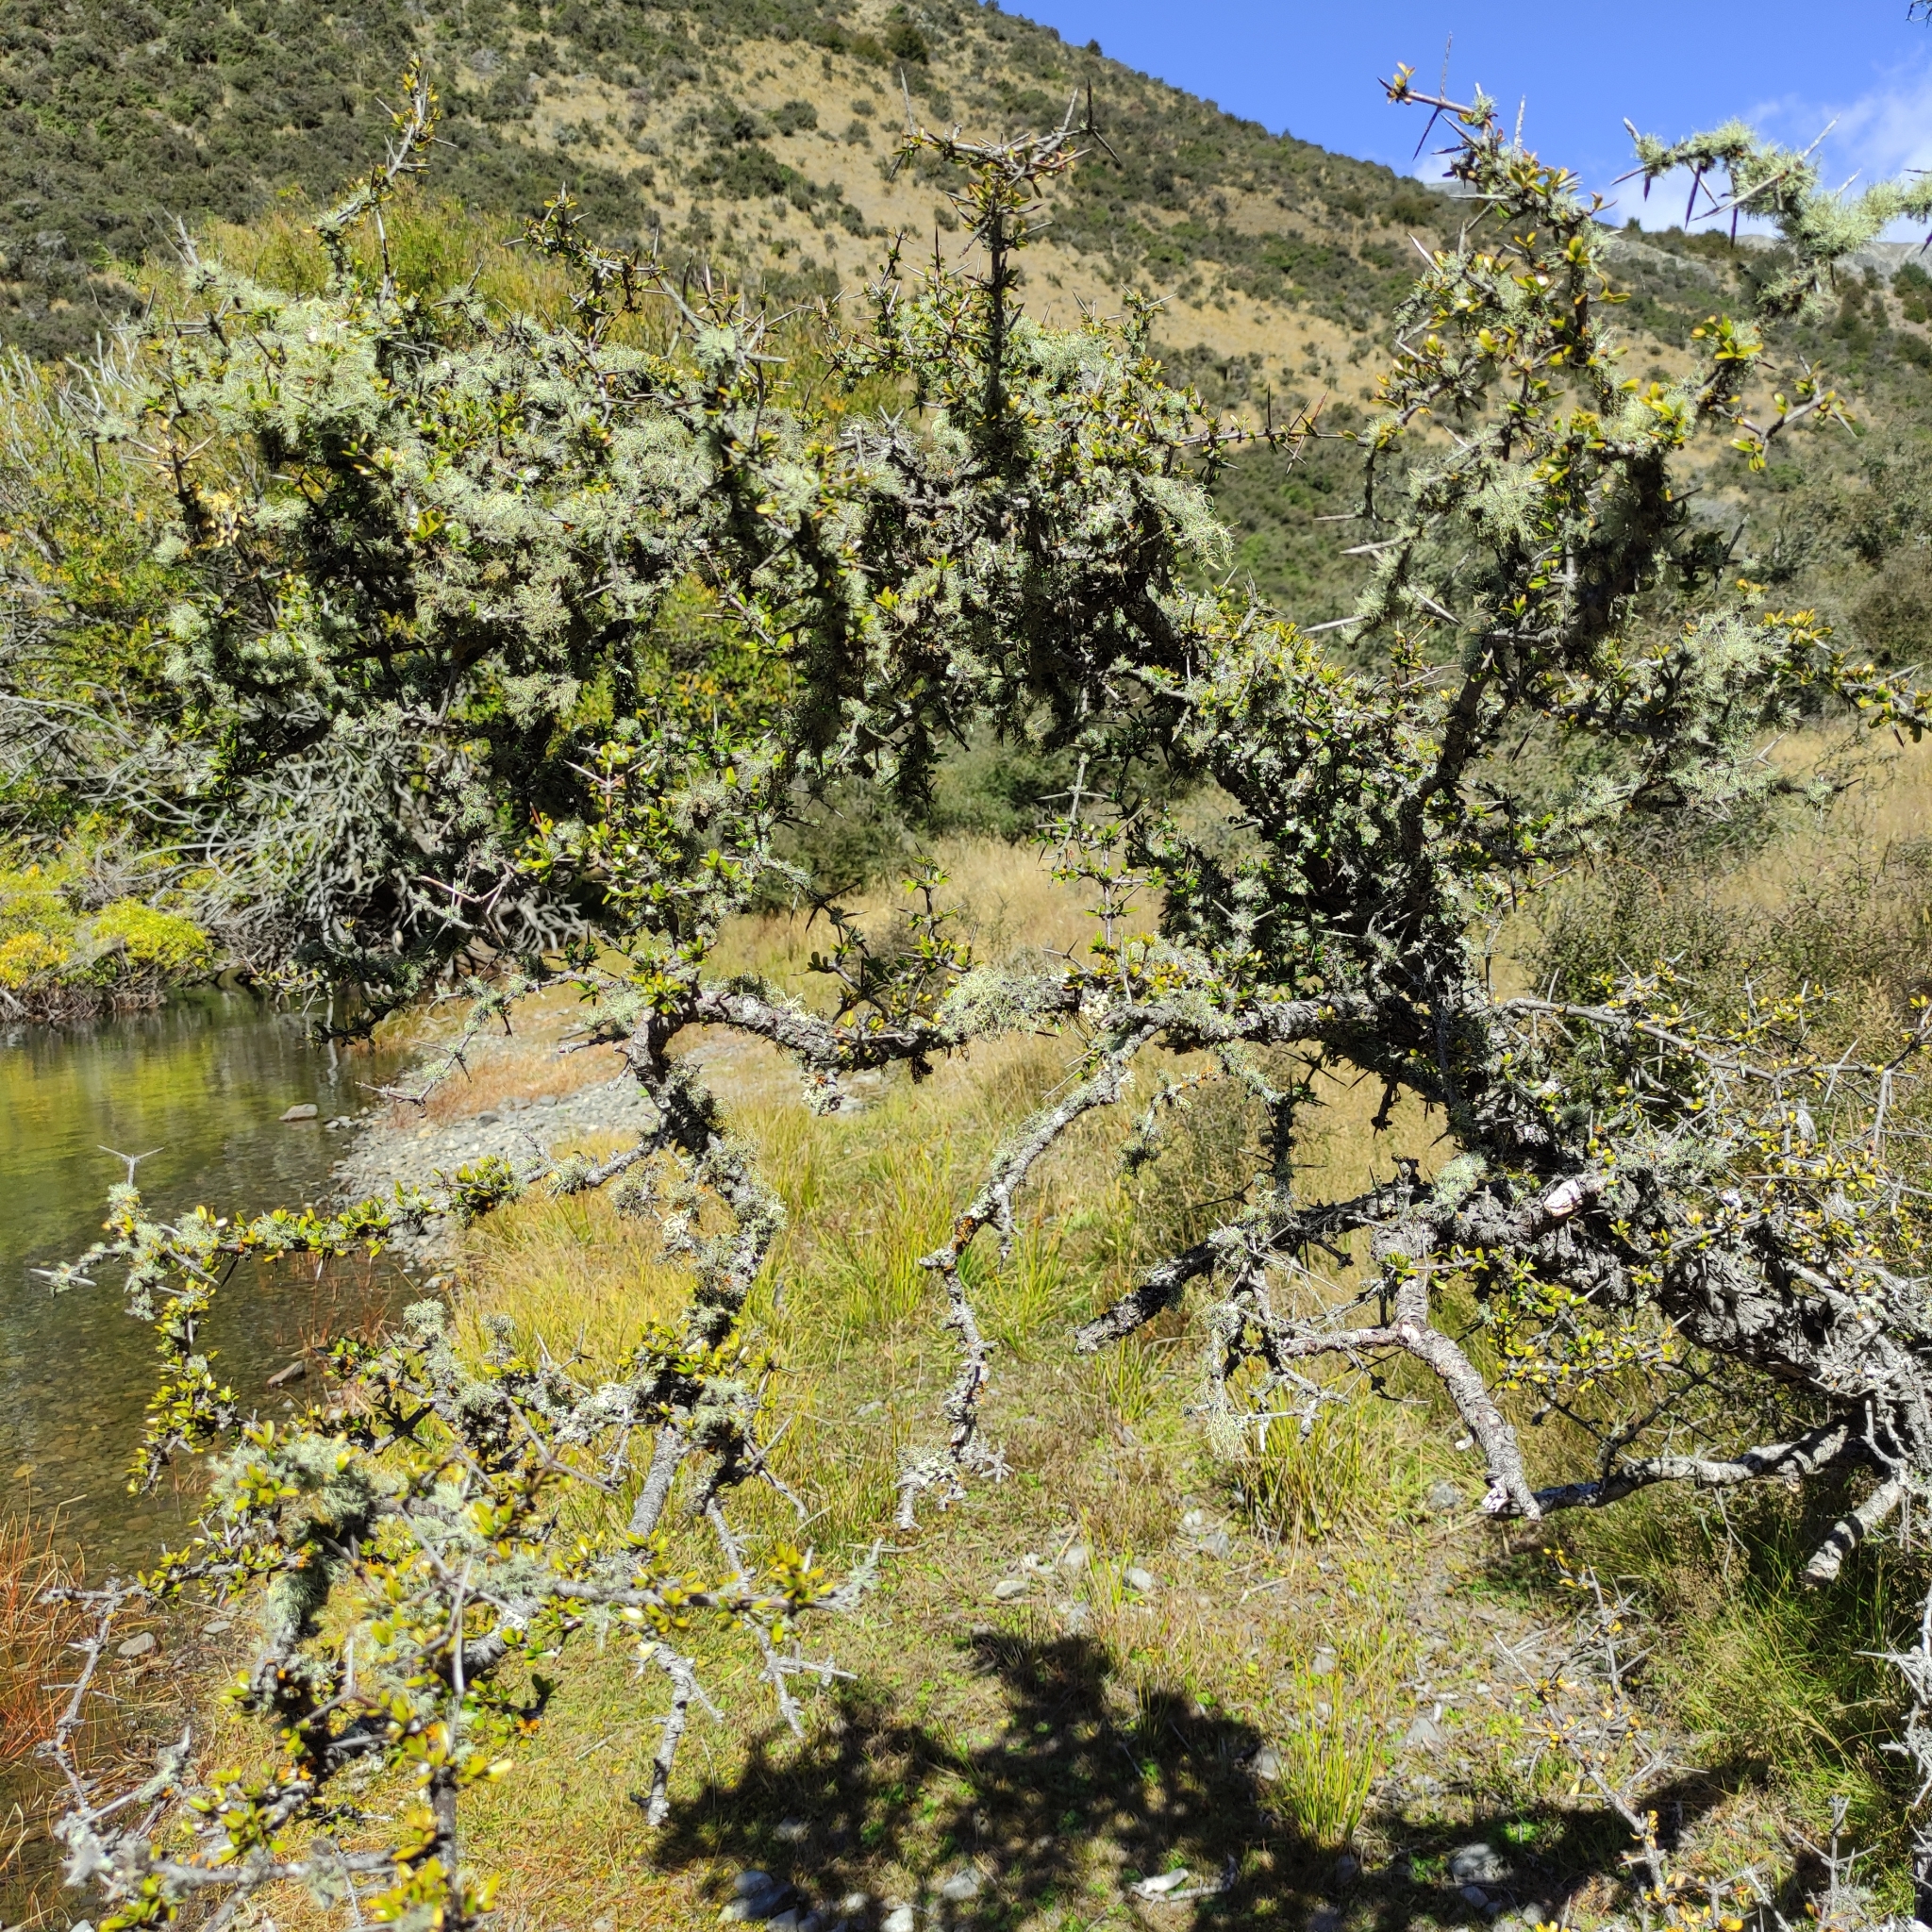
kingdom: Plantae
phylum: Tracheophyta
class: Magnoliopsida
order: Rosales
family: Rhamnaceae
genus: Discaria
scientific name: Discaria toumatou
